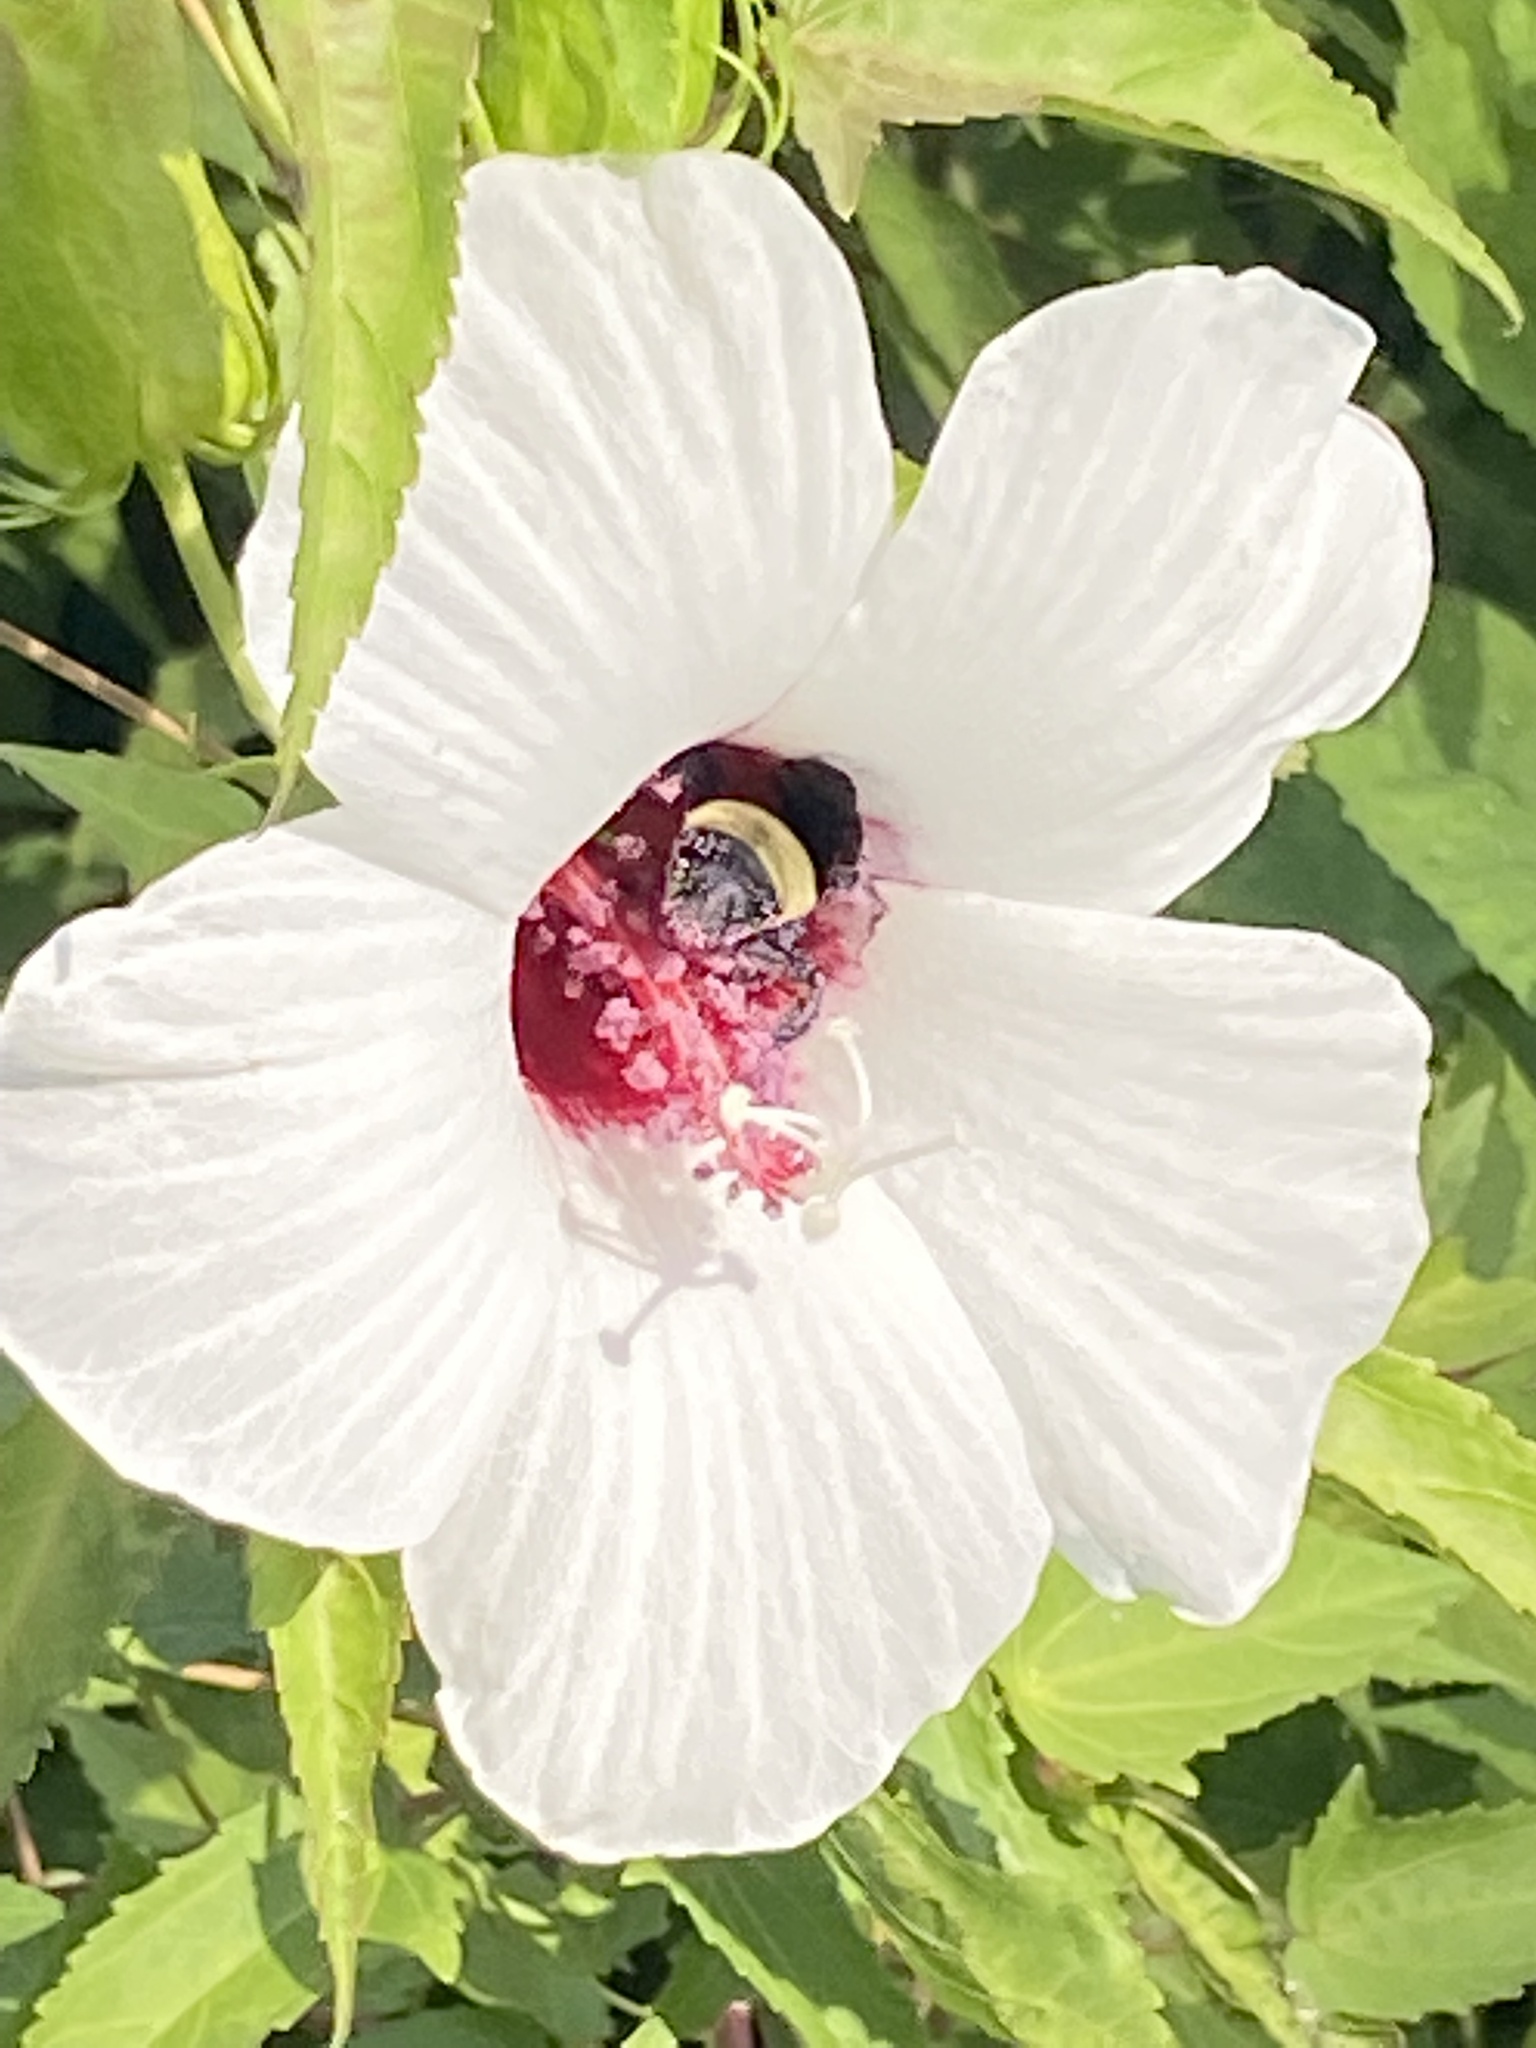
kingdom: Plantae
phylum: Tracheophyta
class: Magnoliopsida
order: Malvales
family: Malvaceae
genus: Hibiscus
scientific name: Hibiscus laevis
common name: Scarlet rose-mallow
